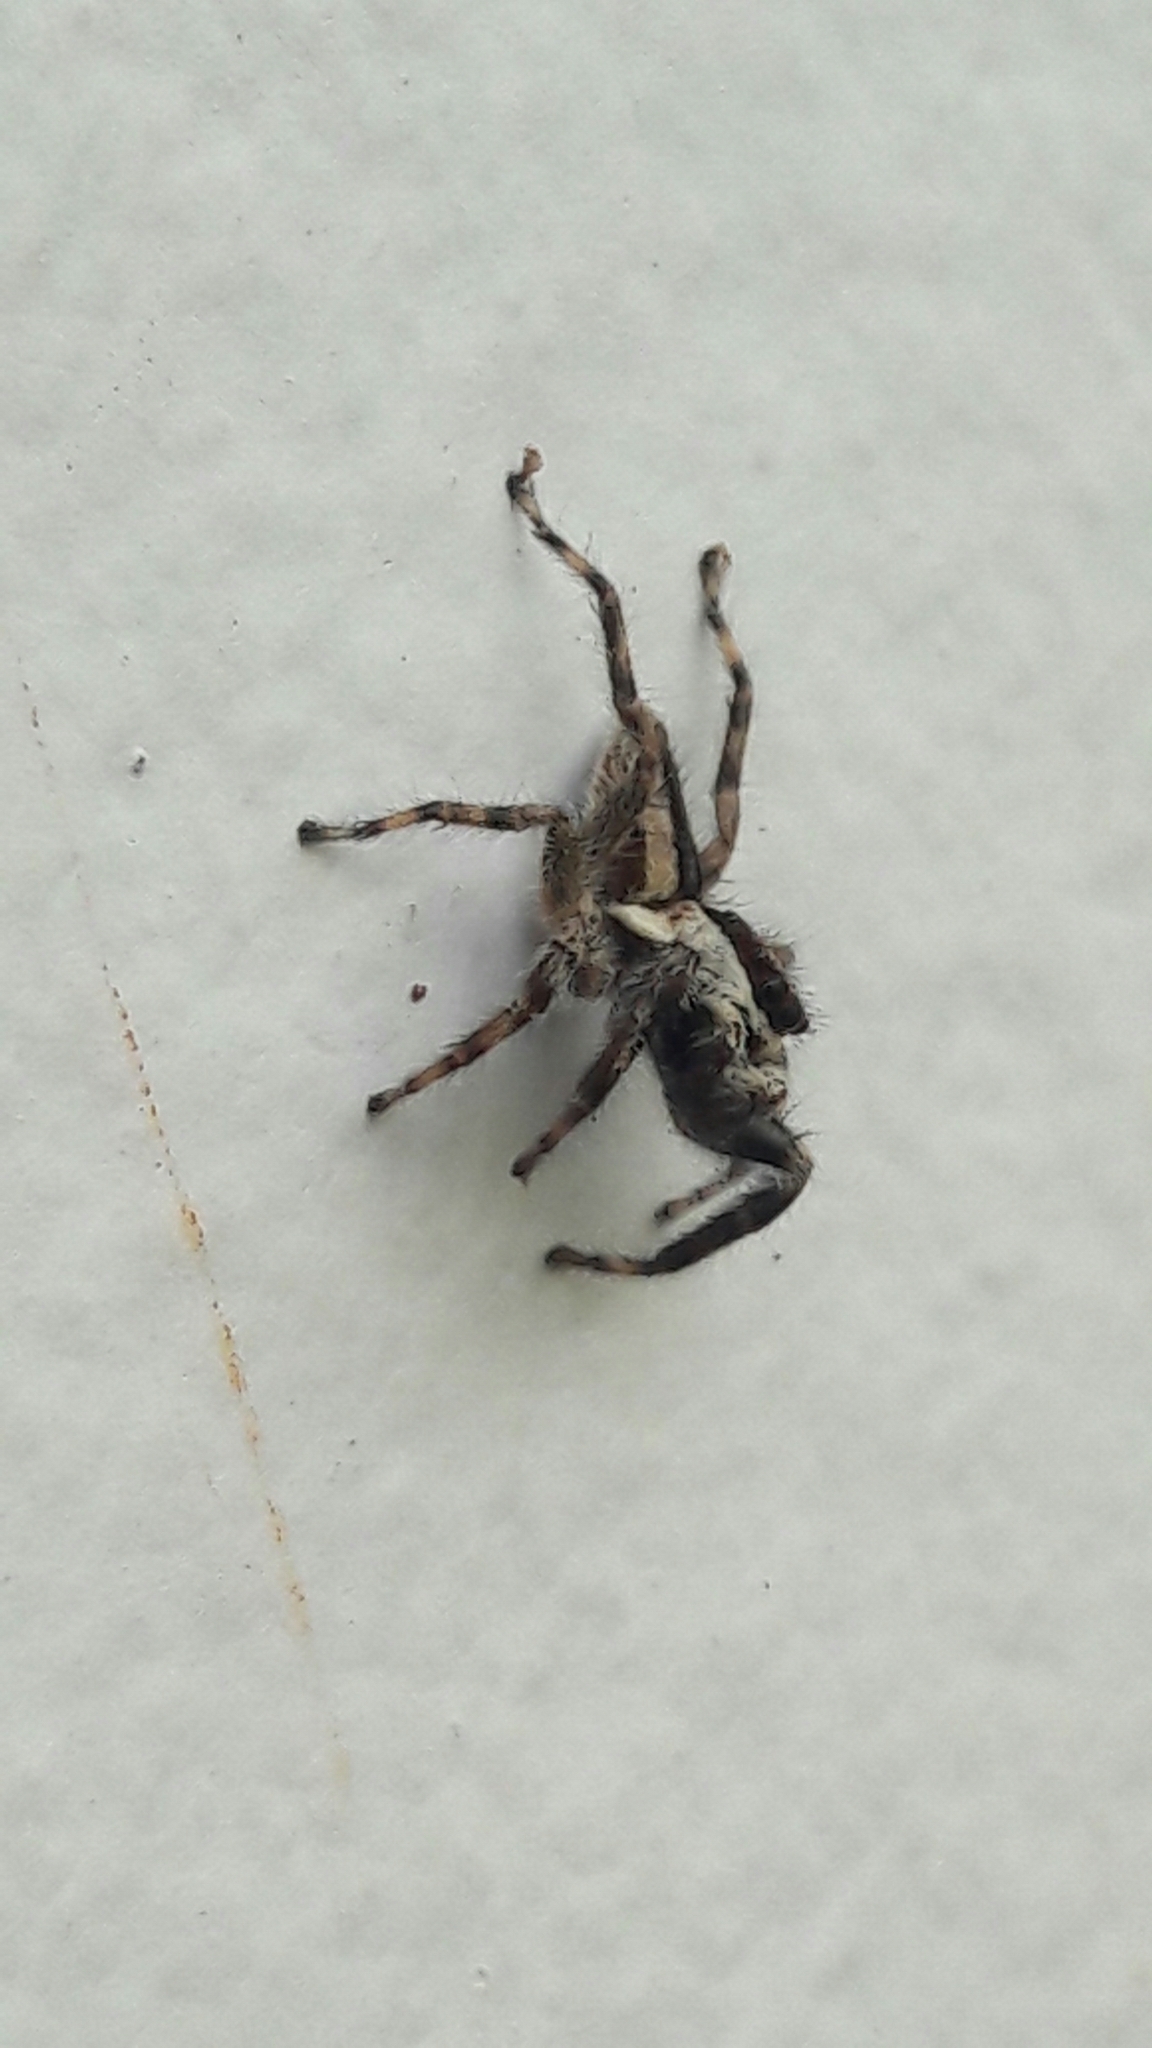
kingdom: Animalia
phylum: Arthropoda
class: Arachnida
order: Araneae
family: Salticidae
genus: Menemerus
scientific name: Menemerus bivittatus
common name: Gray wall jumper
